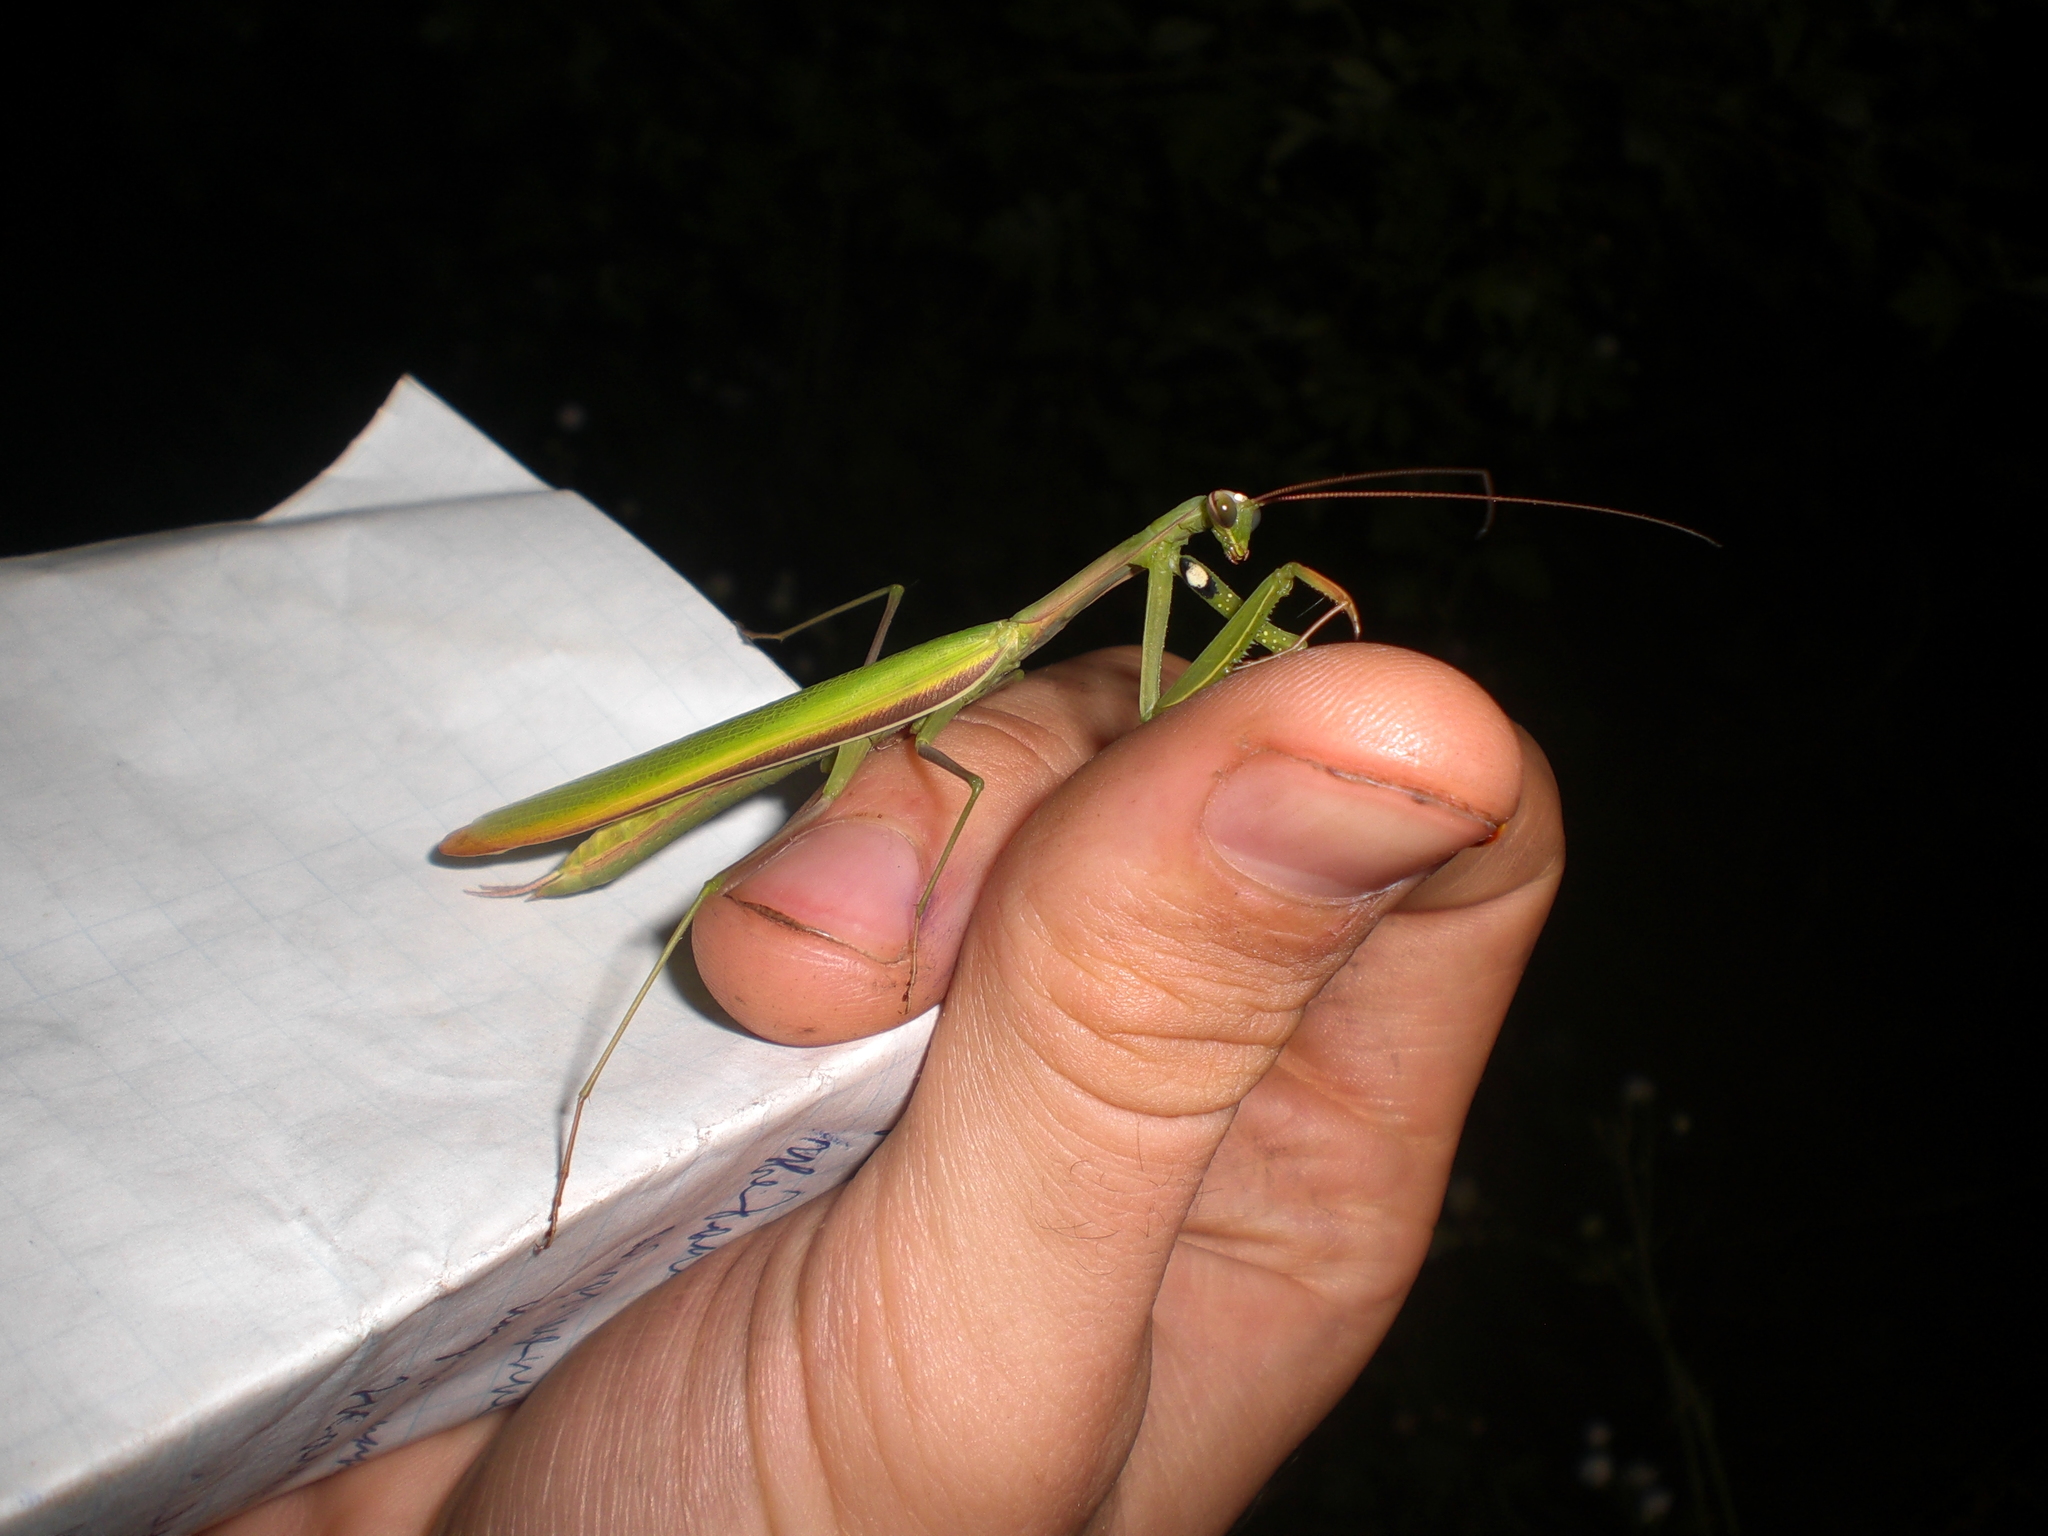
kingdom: Animalia
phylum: Arthropoda
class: Insecta
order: Mantodea
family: Mantidae
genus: Mantis
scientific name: Mantis religiosa
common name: Praying mantis
